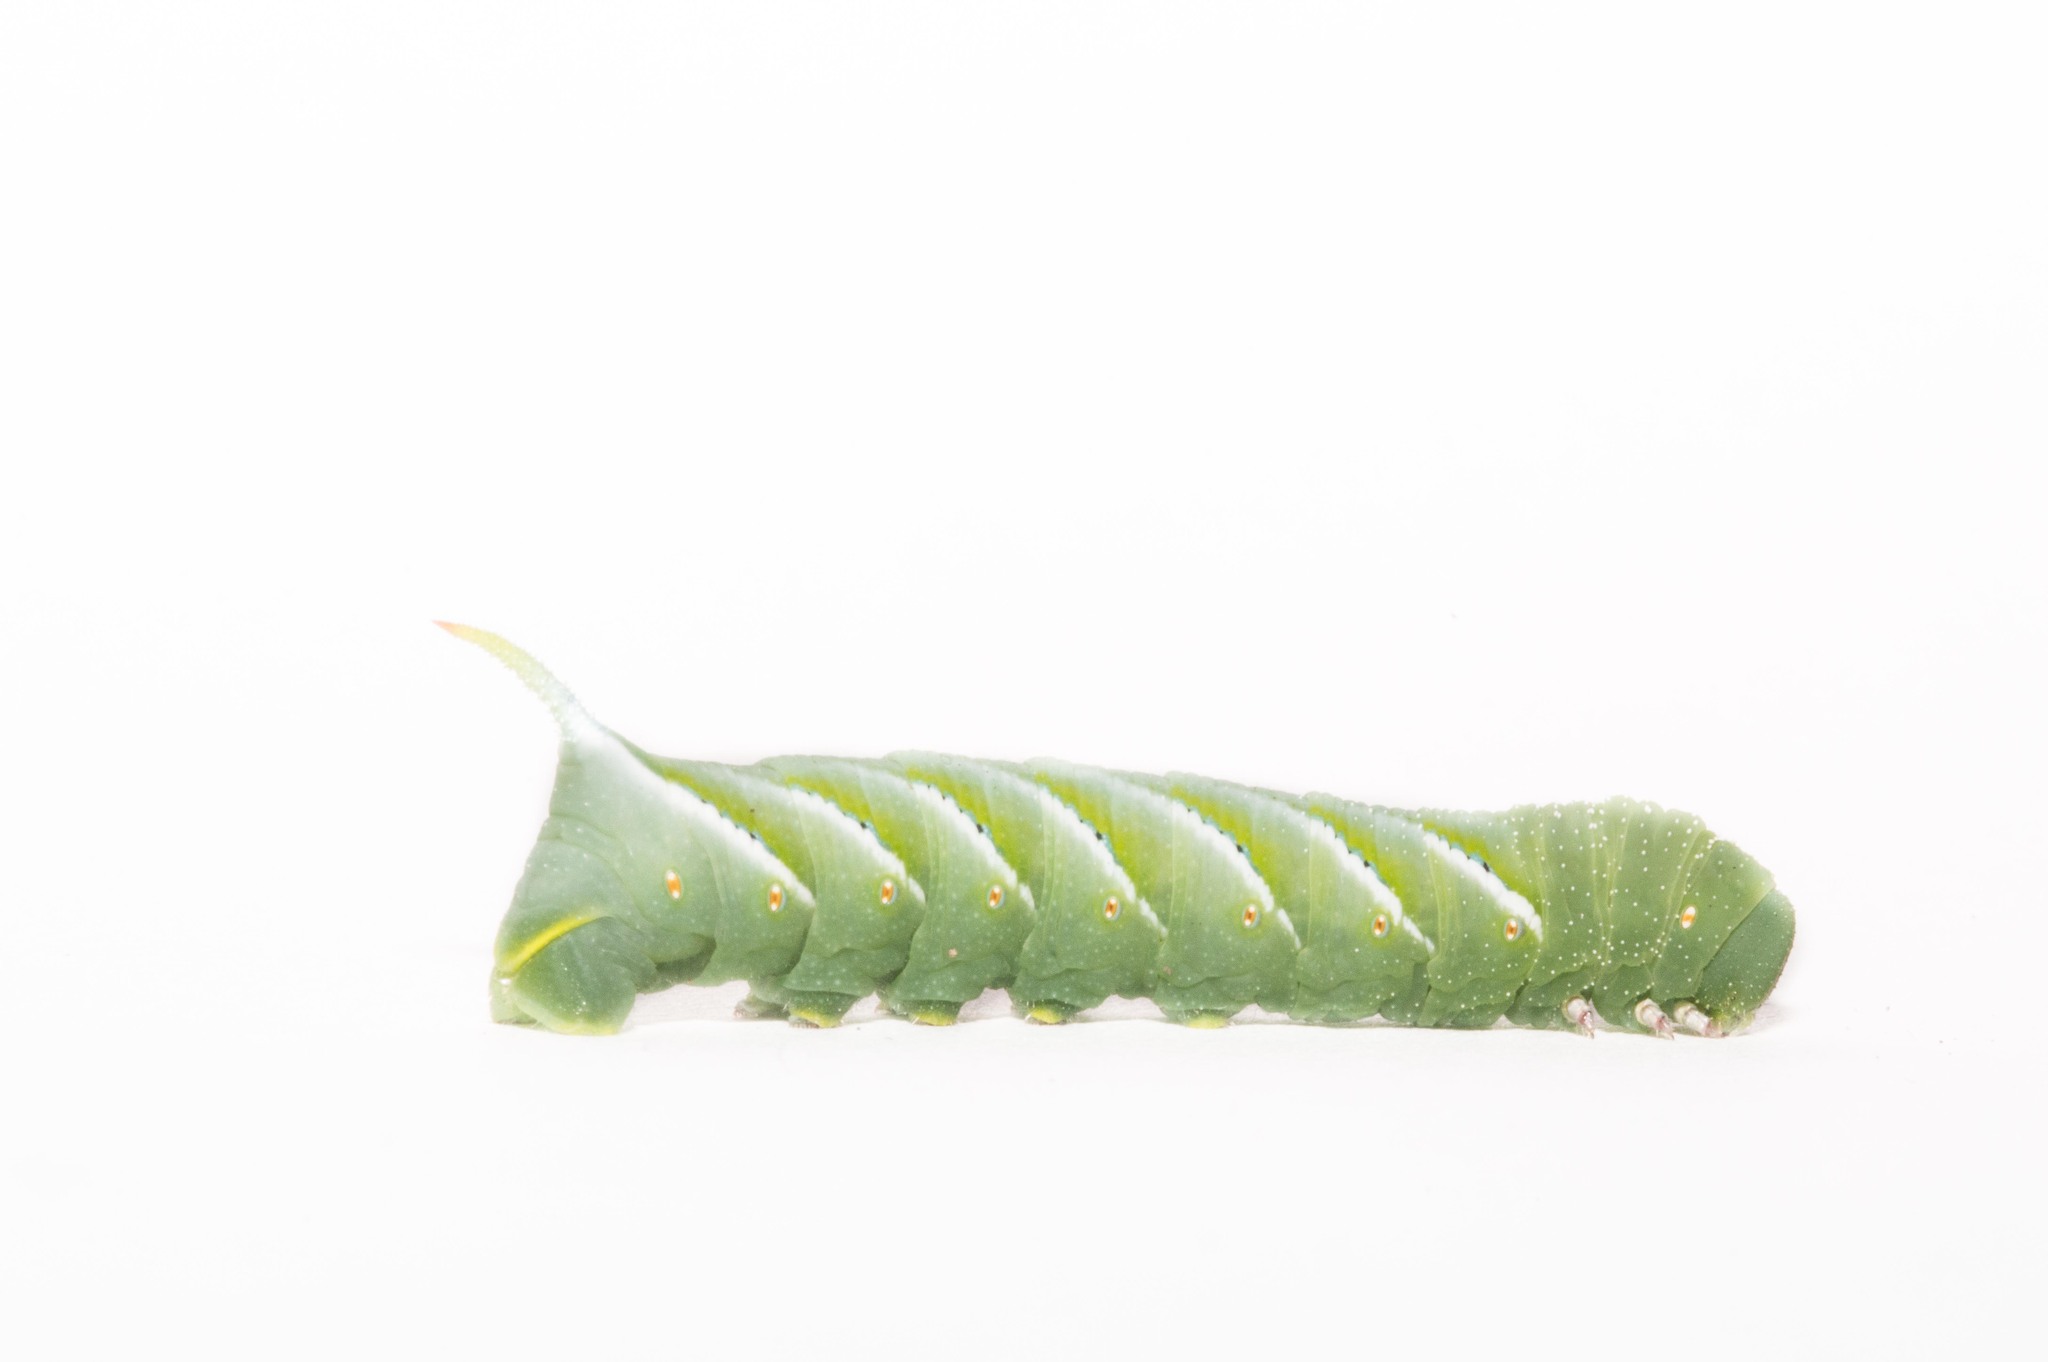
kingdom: Animalia
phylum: Arthropoda
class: Insecta
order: Lepidoptera
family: Sphingidae
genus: Manduca
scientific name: Manduca sexta
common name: Carolina sphinx
